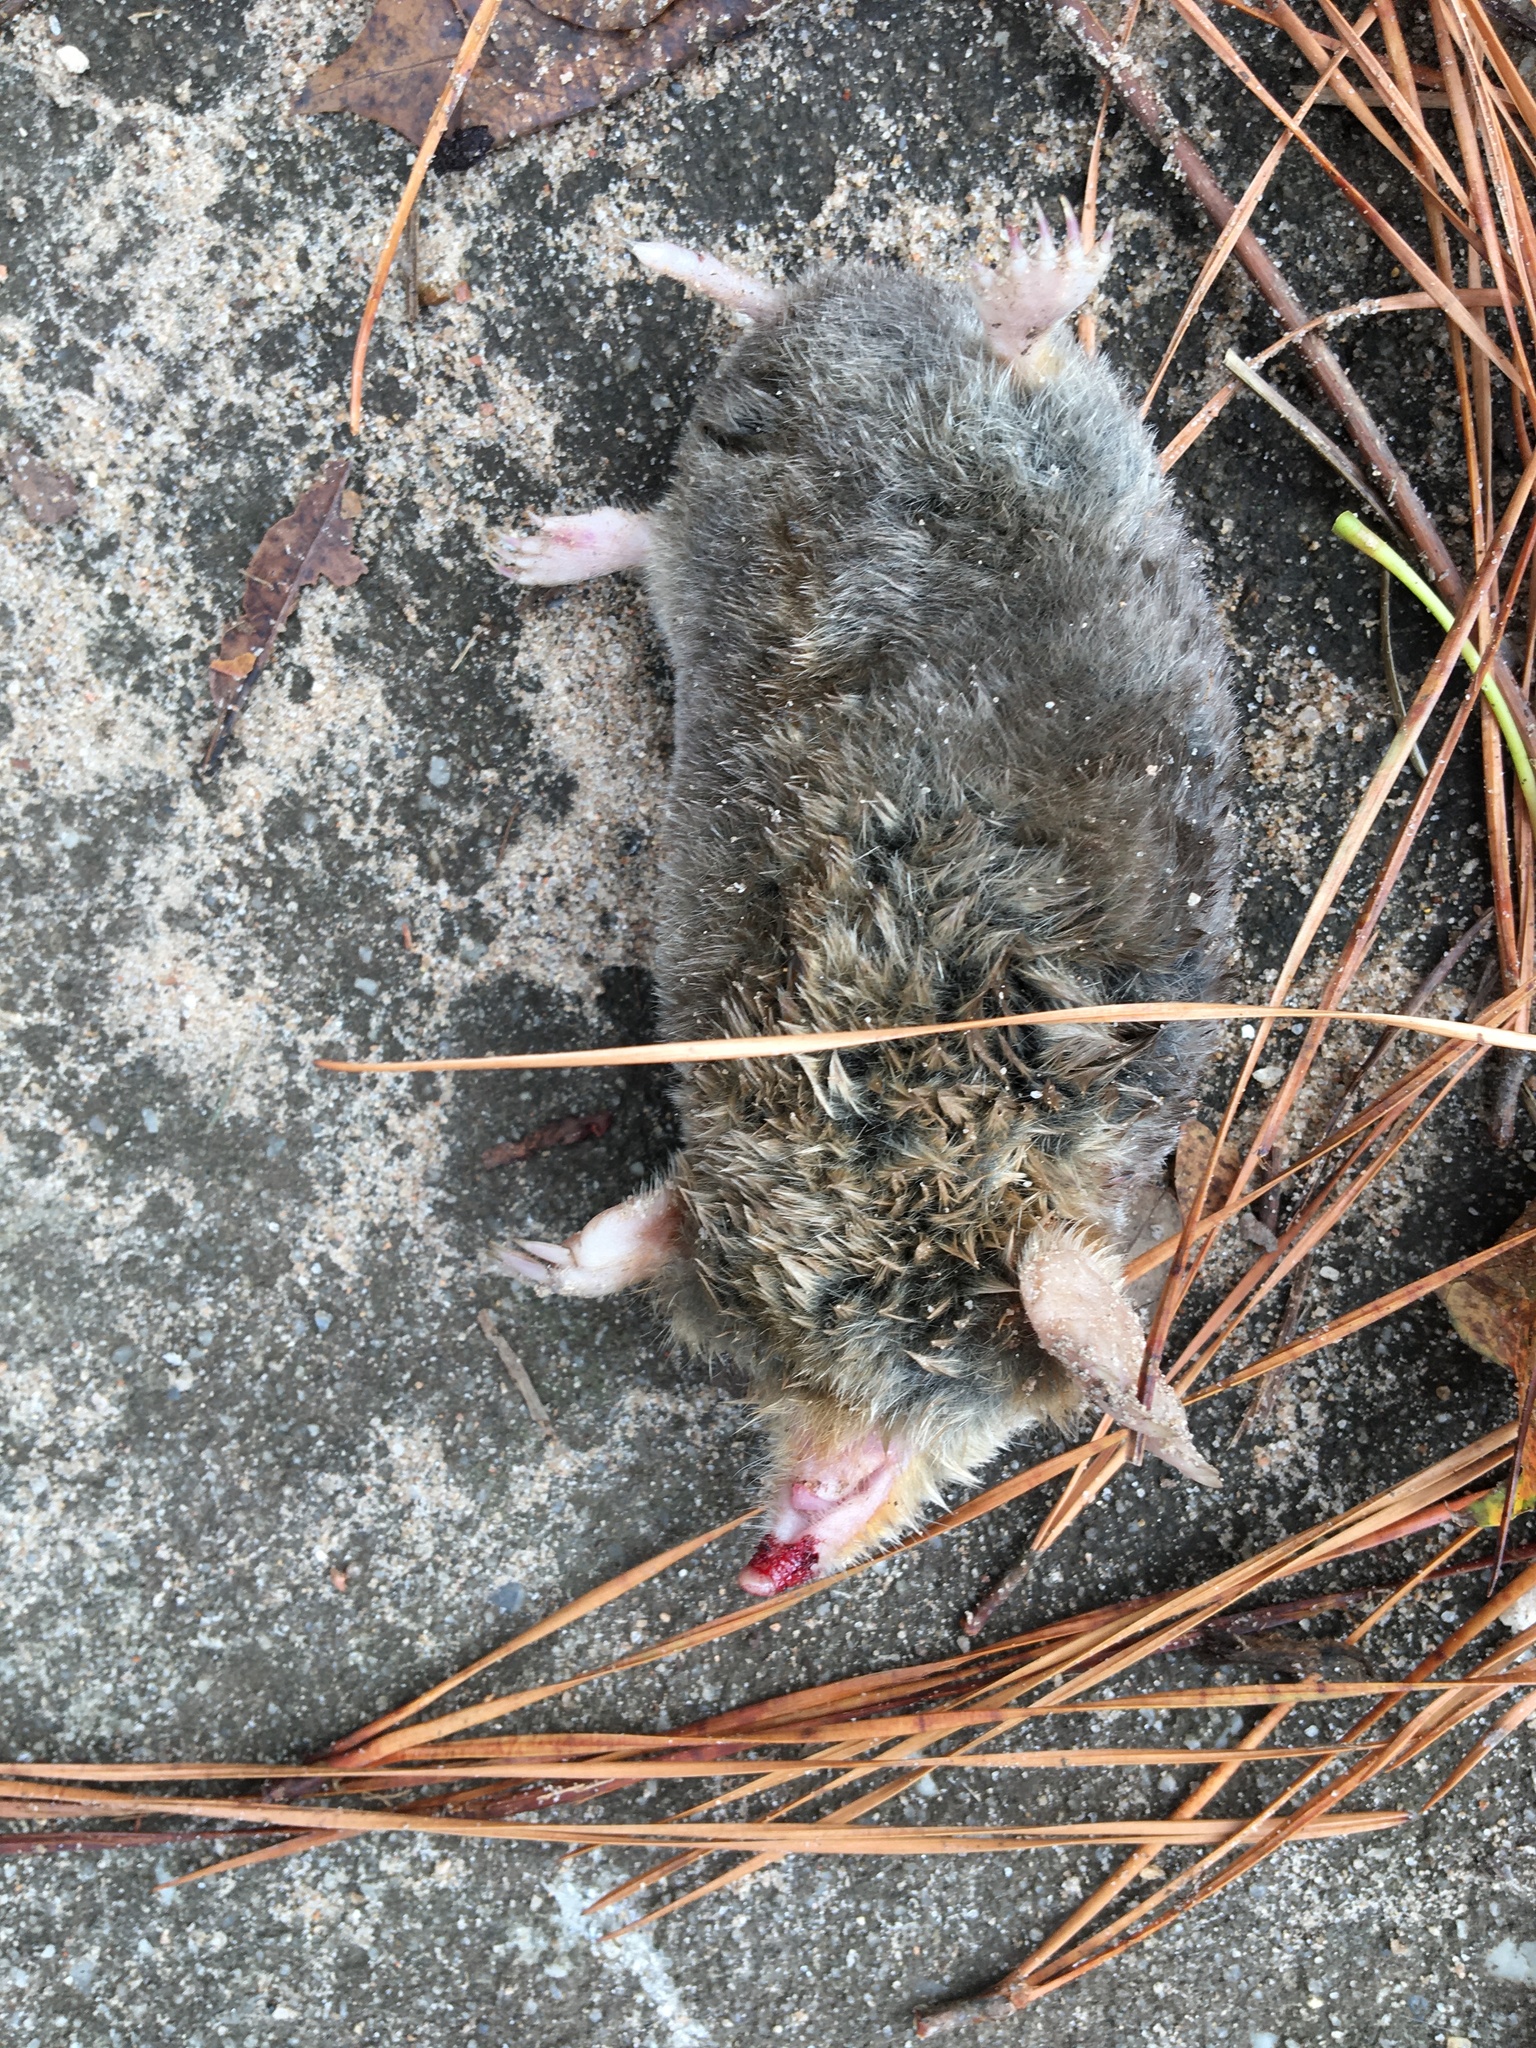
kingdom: Animalia
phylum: Chordata
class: Mammalia
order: Soricomorpha
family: Talpidae
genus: Scalopus
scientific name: Scalopus aquaticus
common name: Eastern mole
